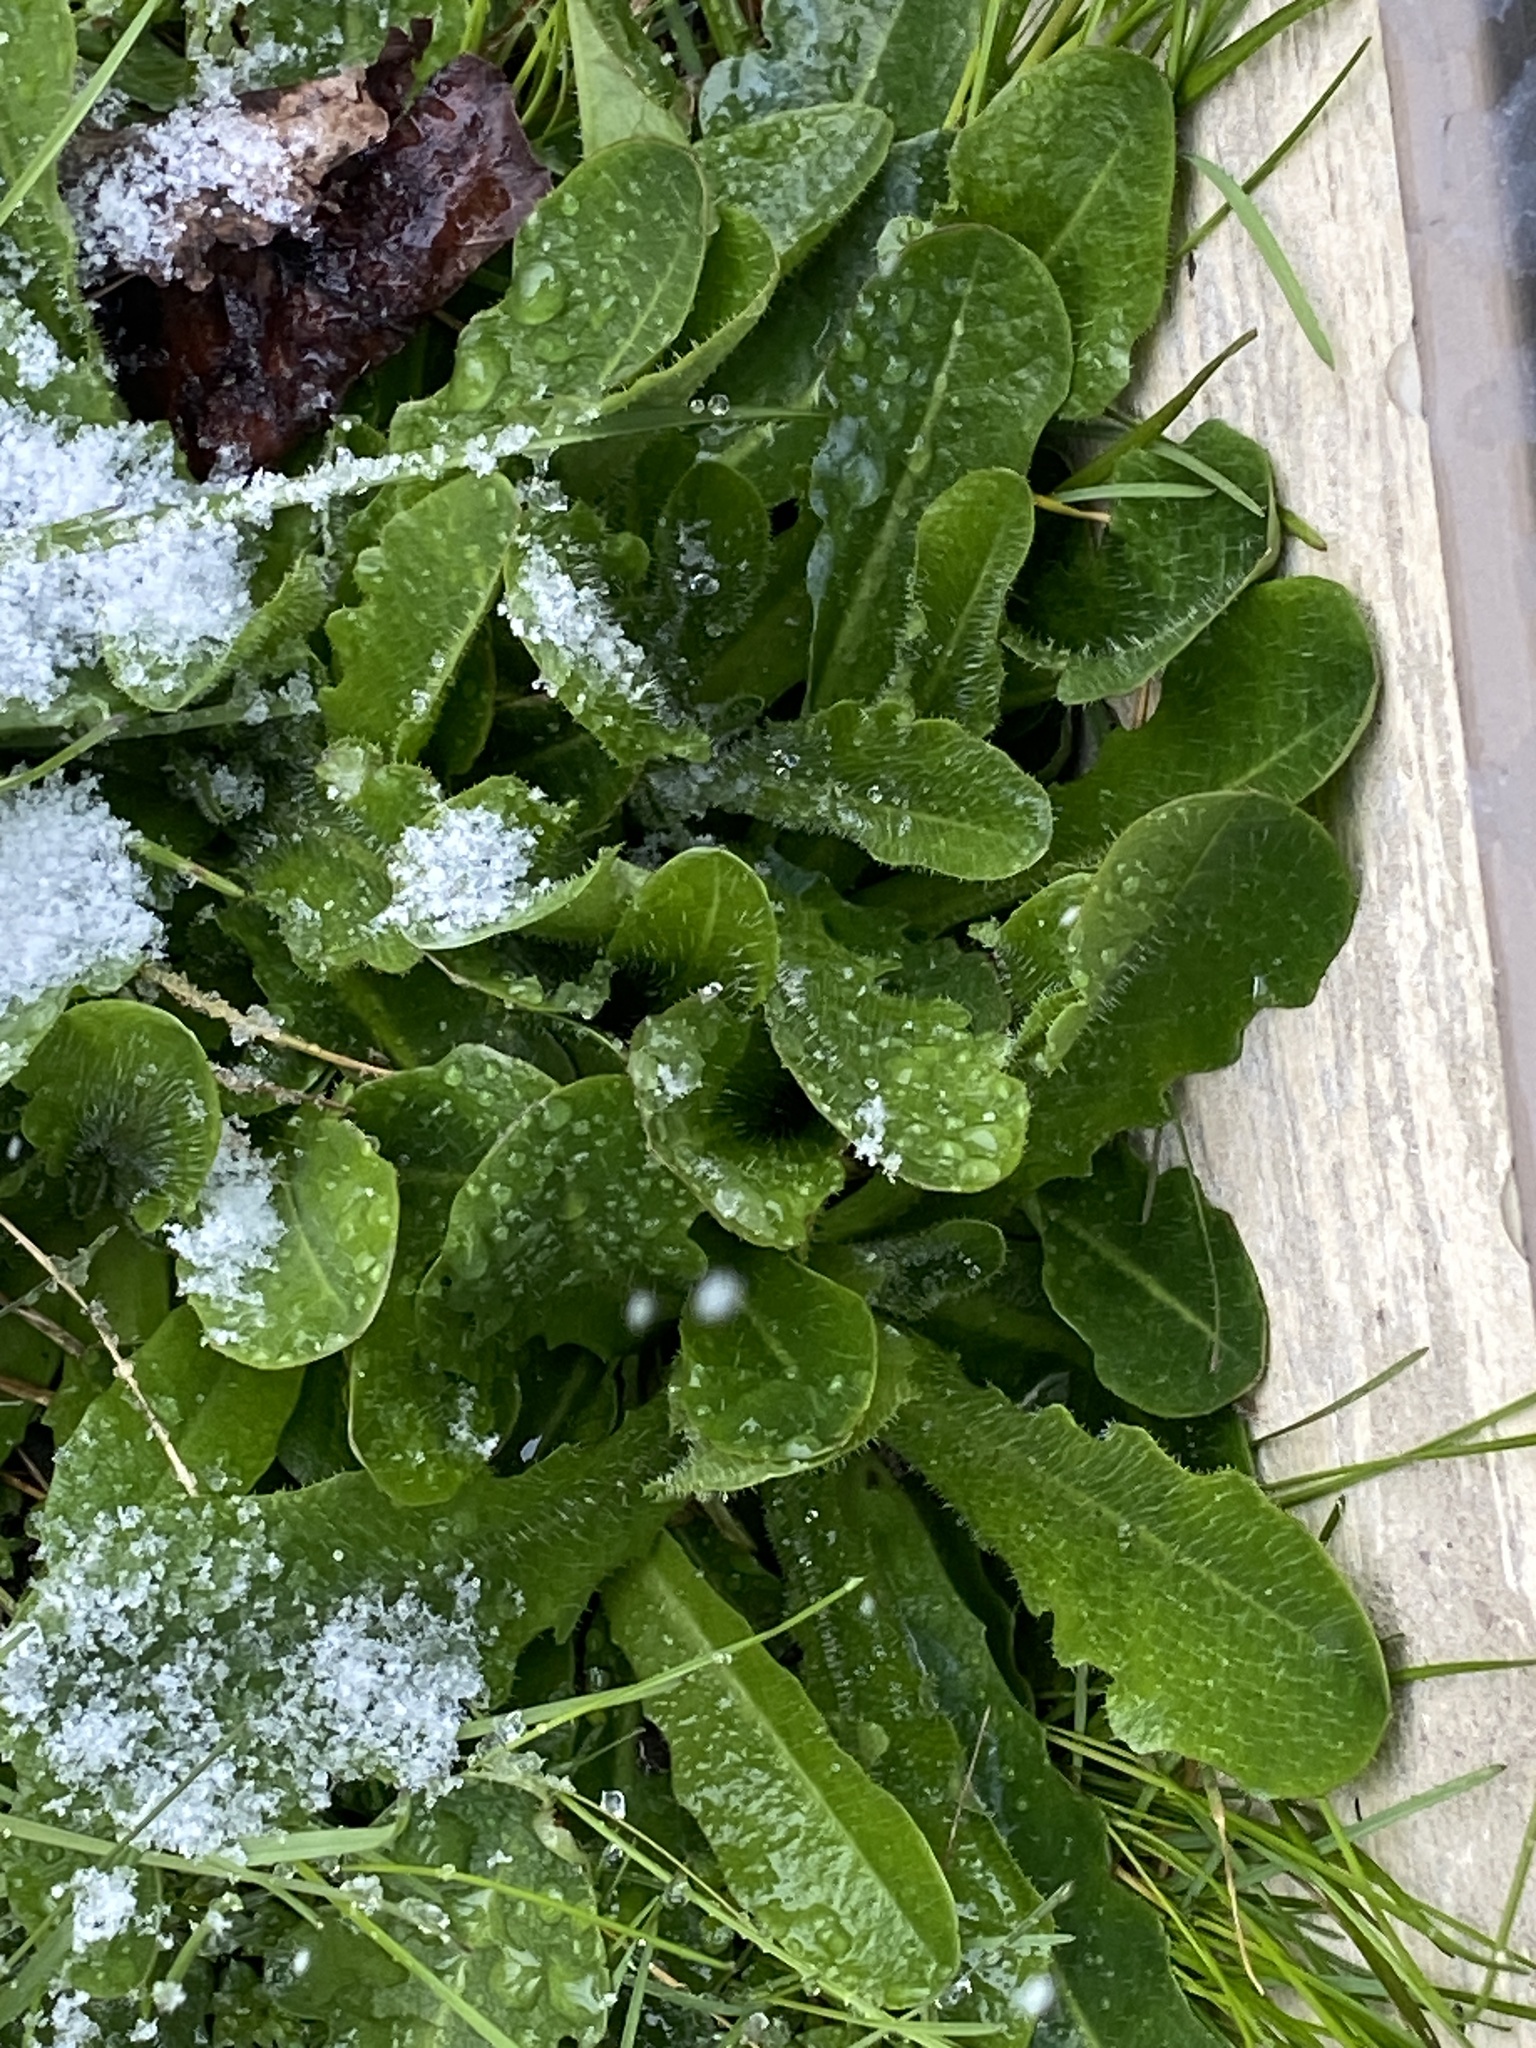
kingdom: Plantae
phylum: Tracheophyta
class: Magnoliopsida
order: Asterales
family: Asteraceae
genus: Hypochaeris
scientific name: Hypochaeris radicata
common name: Flatweed
